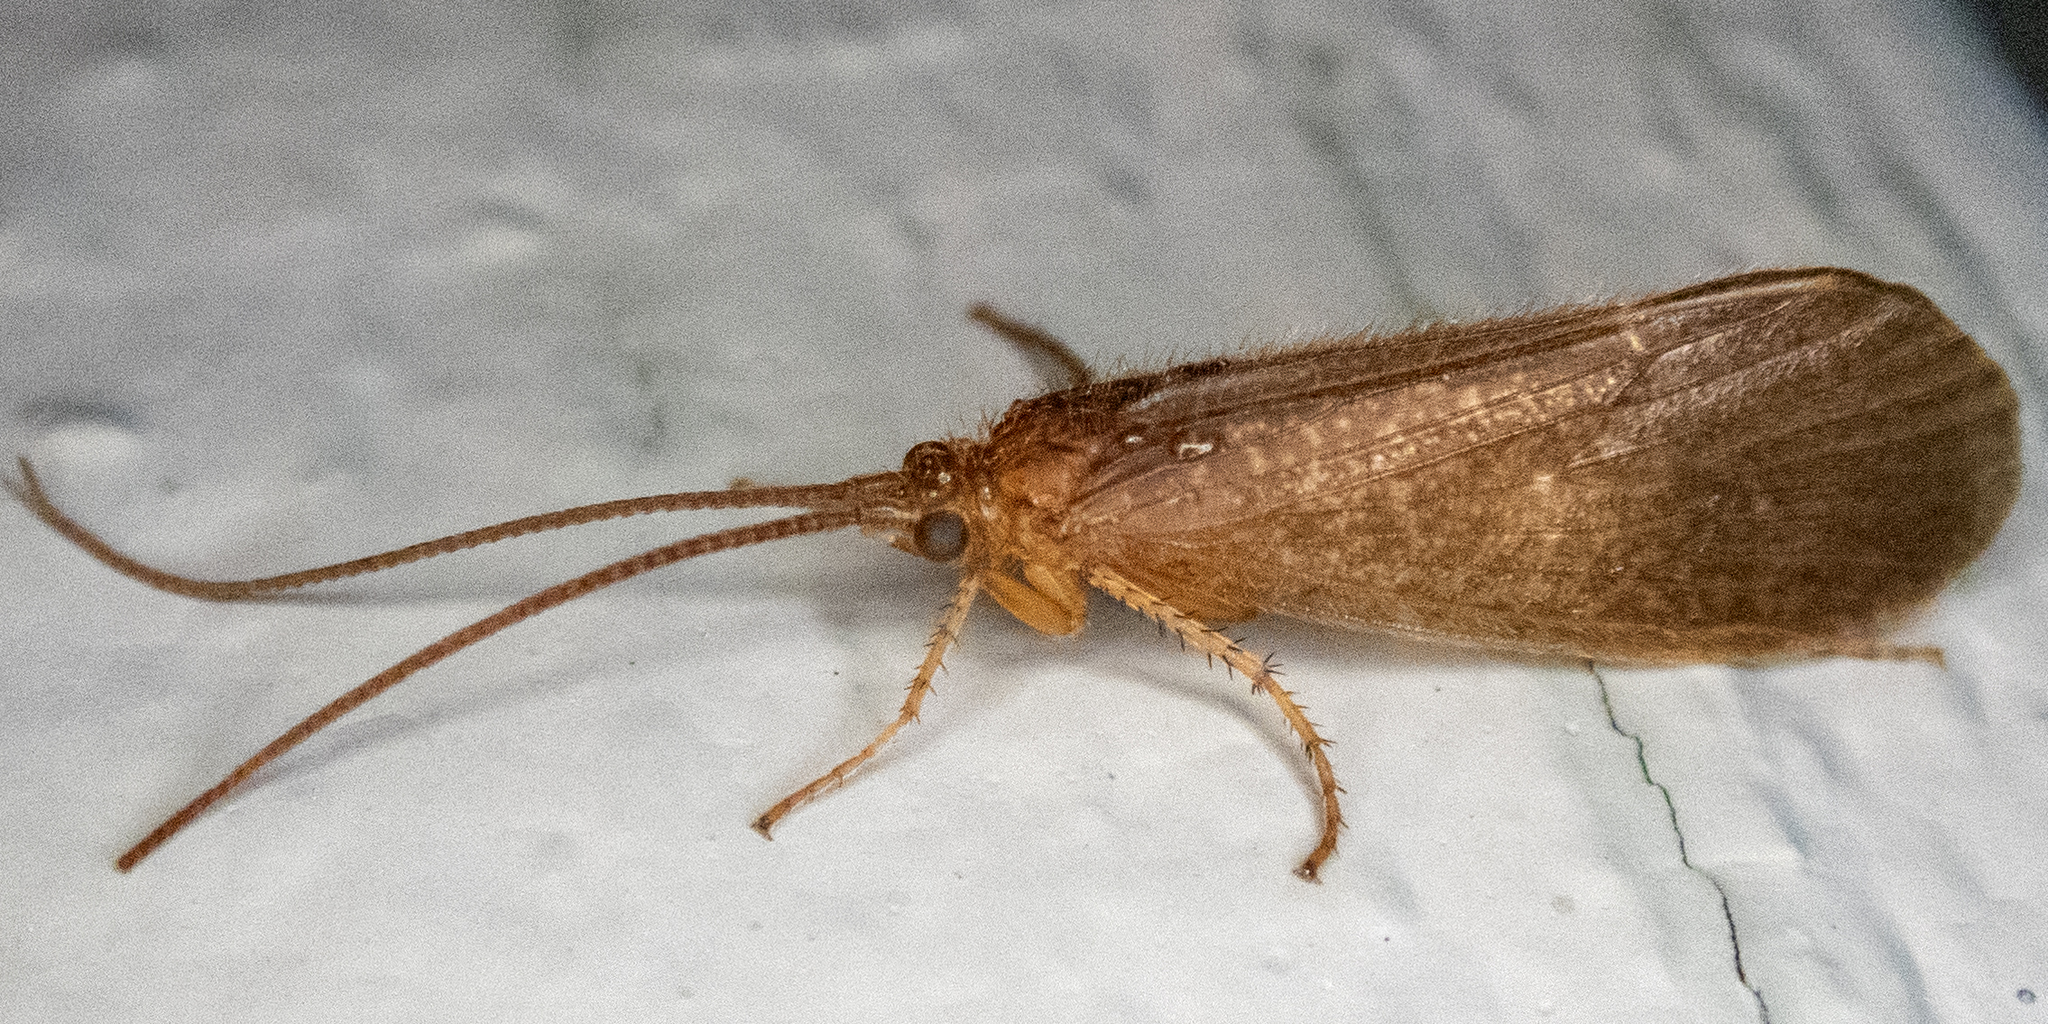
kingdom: Animalia
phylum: Arthropoda
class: Insecta
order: Trichoptera
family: Limnephilidae
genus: Ironoquia
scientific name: Ironoquia
